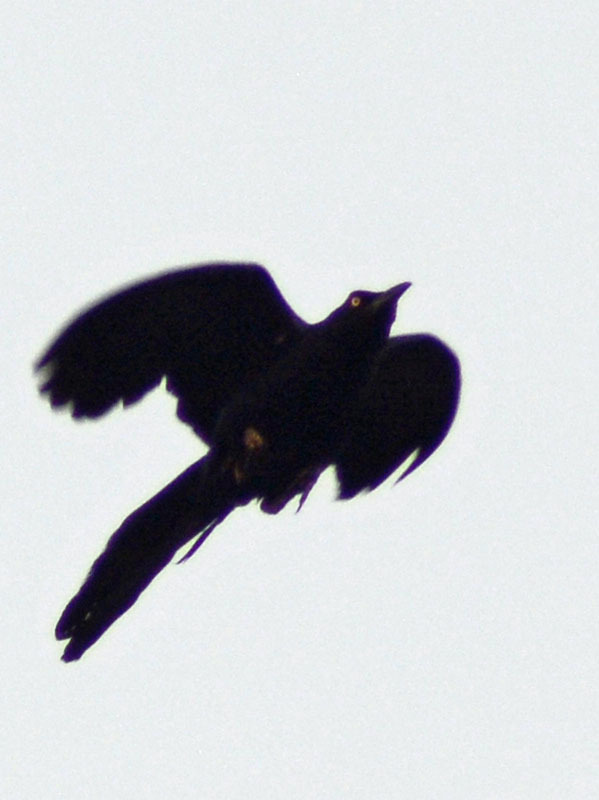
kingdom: Animalia
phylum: Chordata
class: Aves
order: Passeriformes
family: Icteridae
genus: Quiscalus
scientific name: Quiscalus mexicanus
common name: Great-tailed grackle
